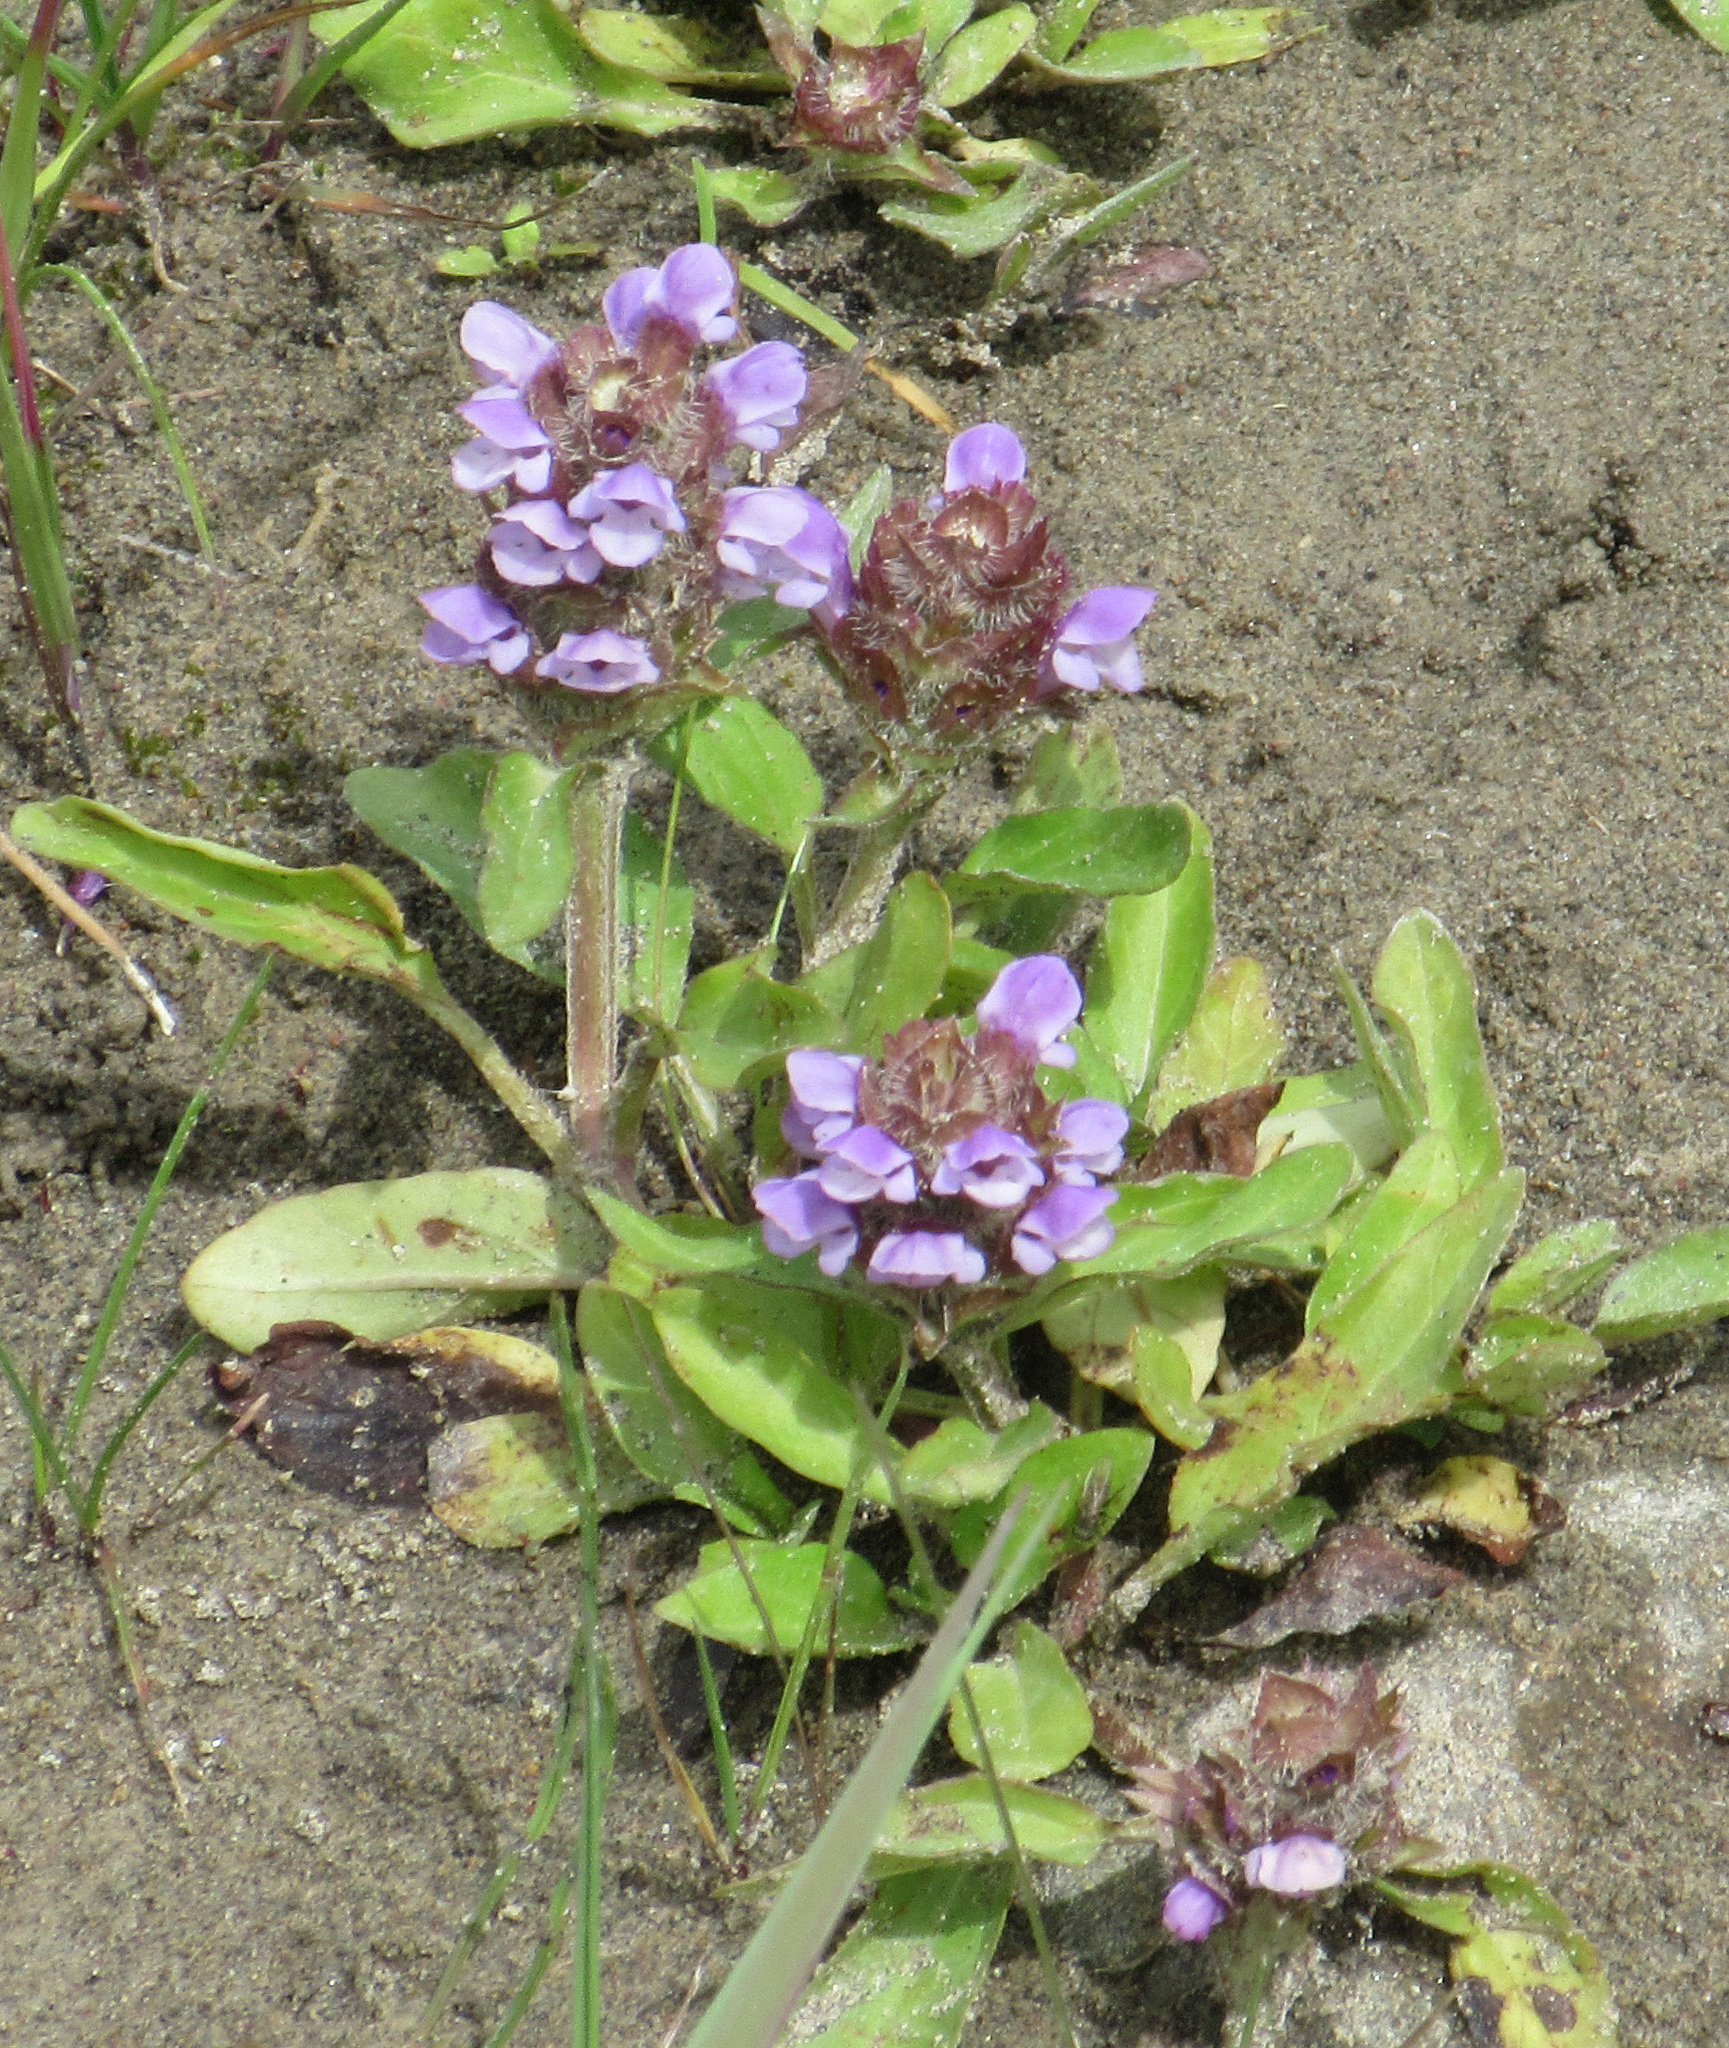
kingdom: Plantae
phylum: Tracheophyta
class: Magnoliopsida
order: Lamiales
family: Lamiaceae
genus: Prunella
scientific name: Prunella vulgaris
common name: Heal-all
